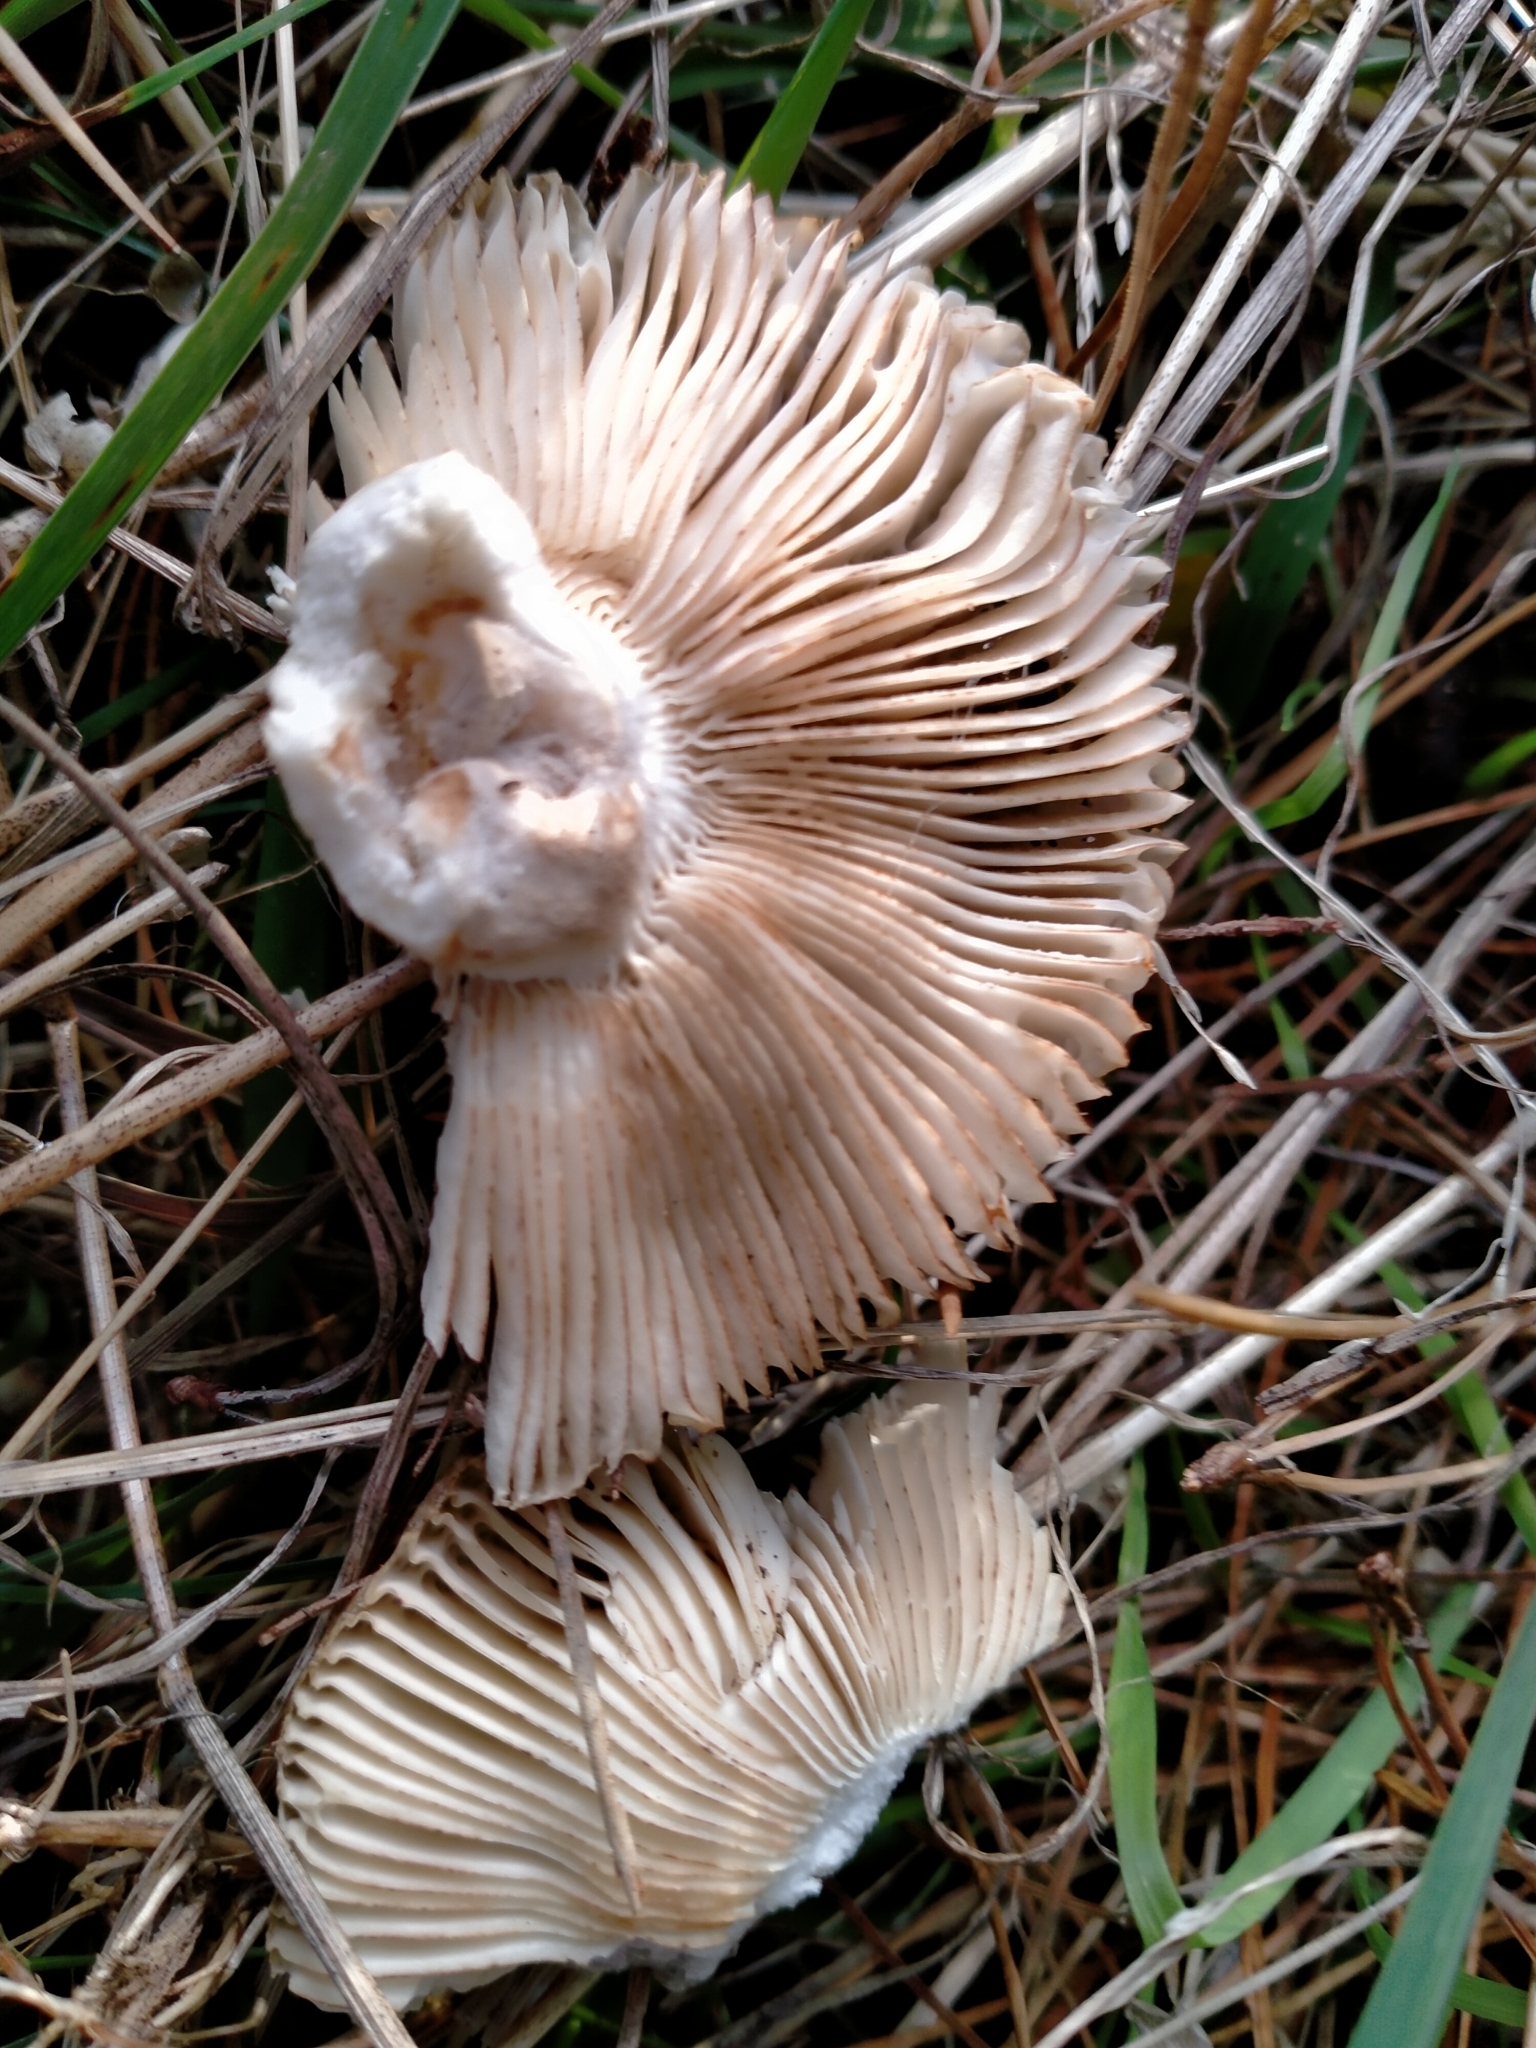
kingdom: Fungi
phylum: Basidiomycota
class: Agaricomycetes
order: Russulales
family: Russulaceae
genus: Russula
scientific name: Russula amoenolens
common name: Camembert brittlegill
